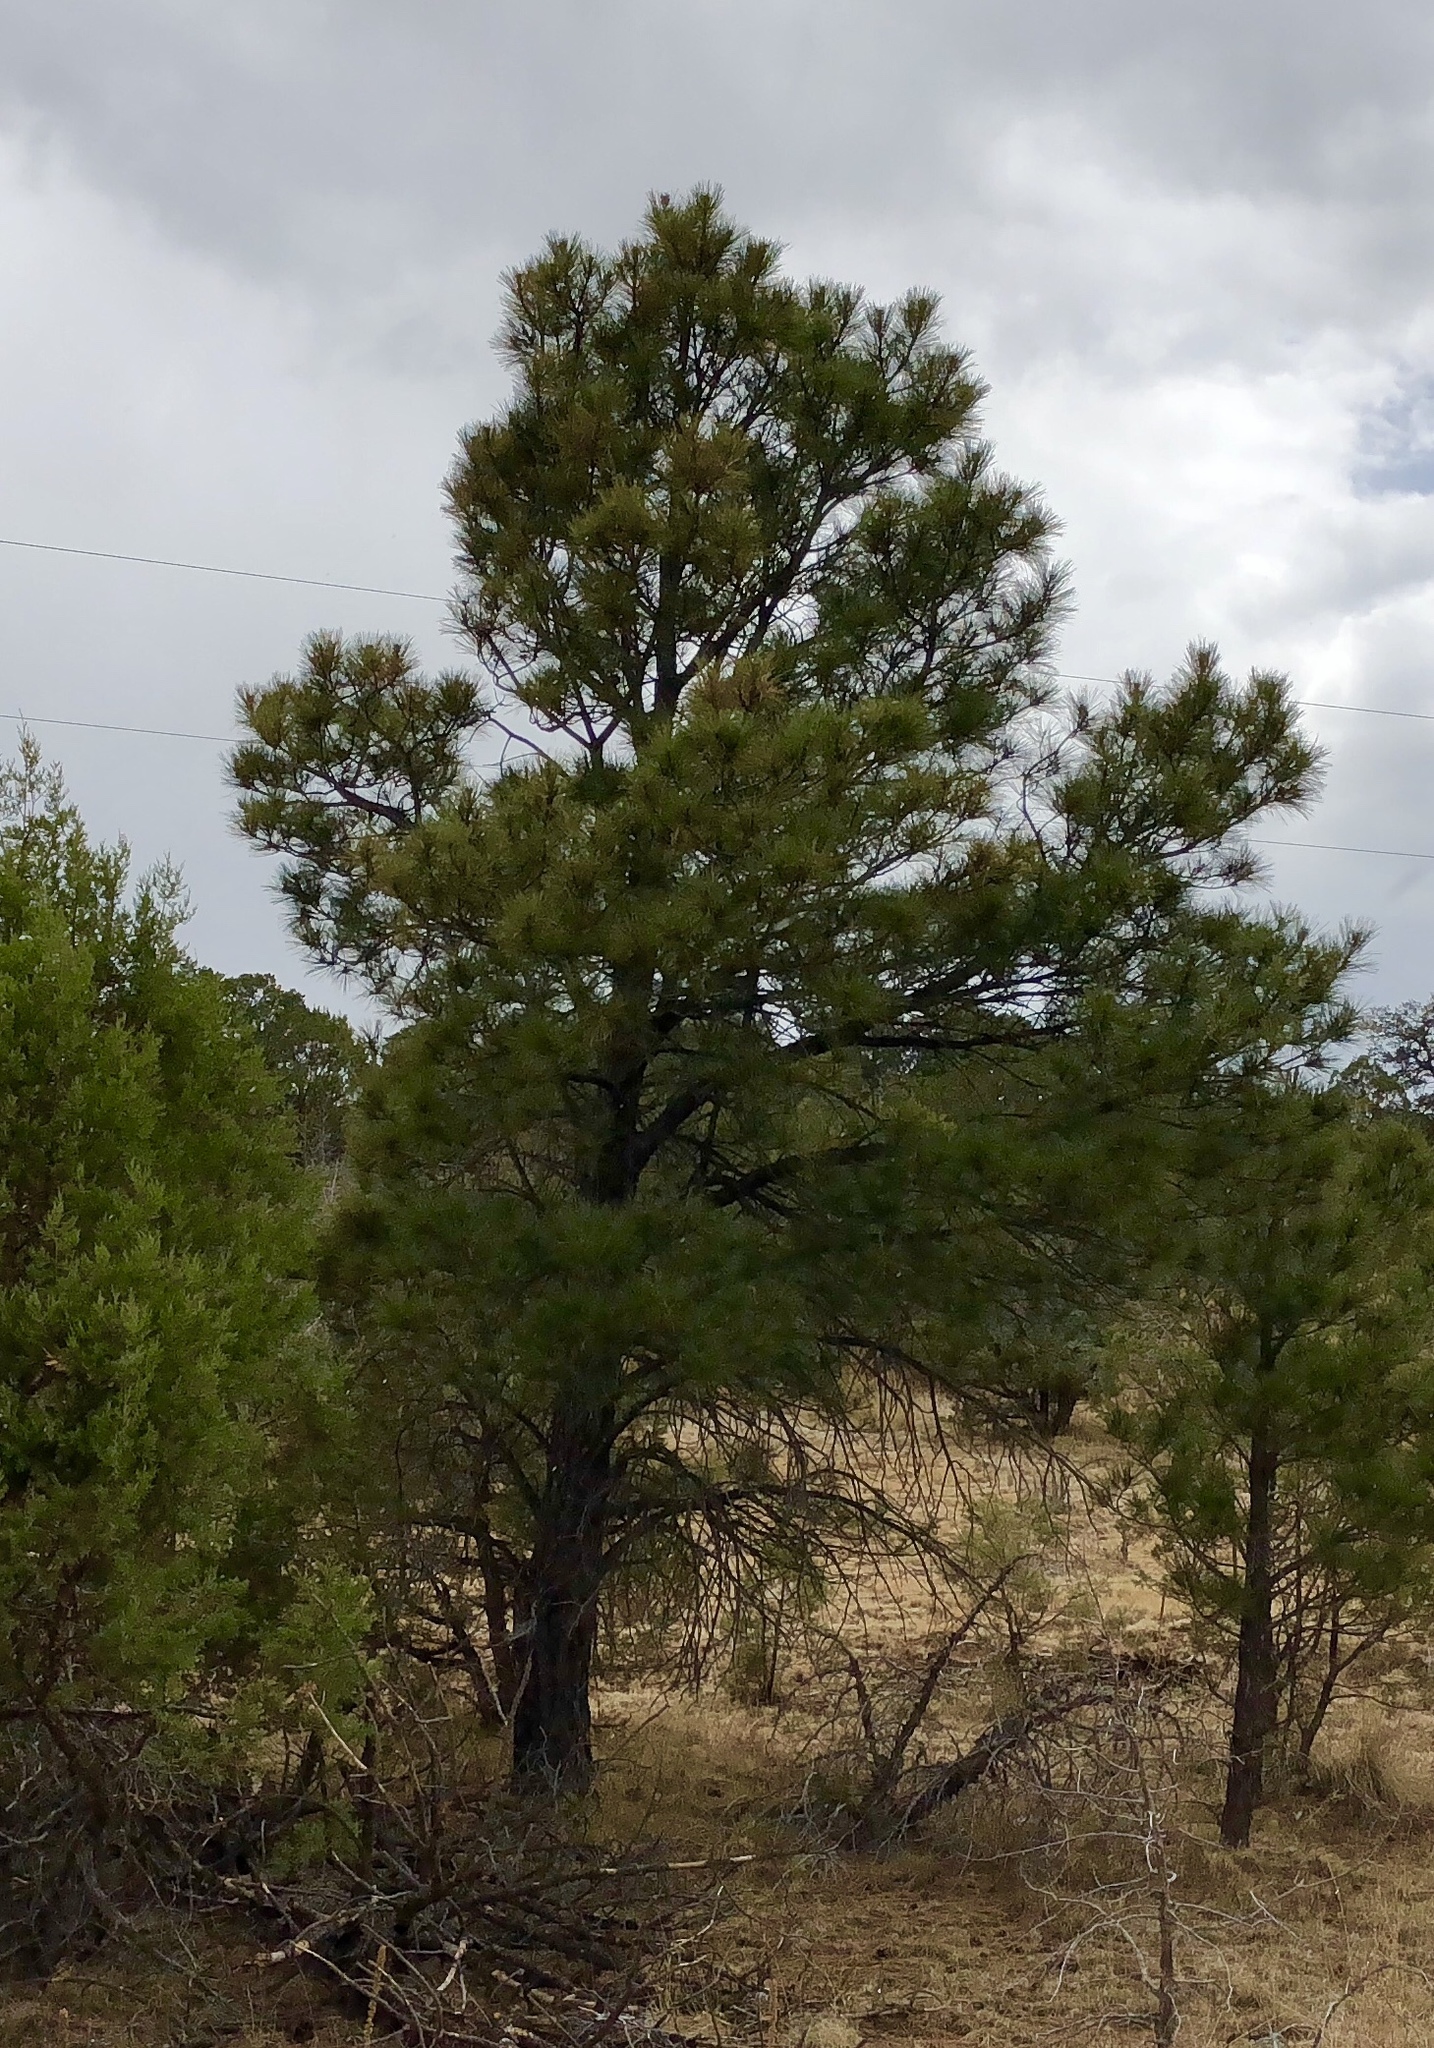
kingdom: Plantae
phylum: Tracheophyta
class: Pinopsida
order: Pinales
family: Pinaceae
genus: Pinus
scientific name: Pinus ponderosa
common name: Western yellow-pine
